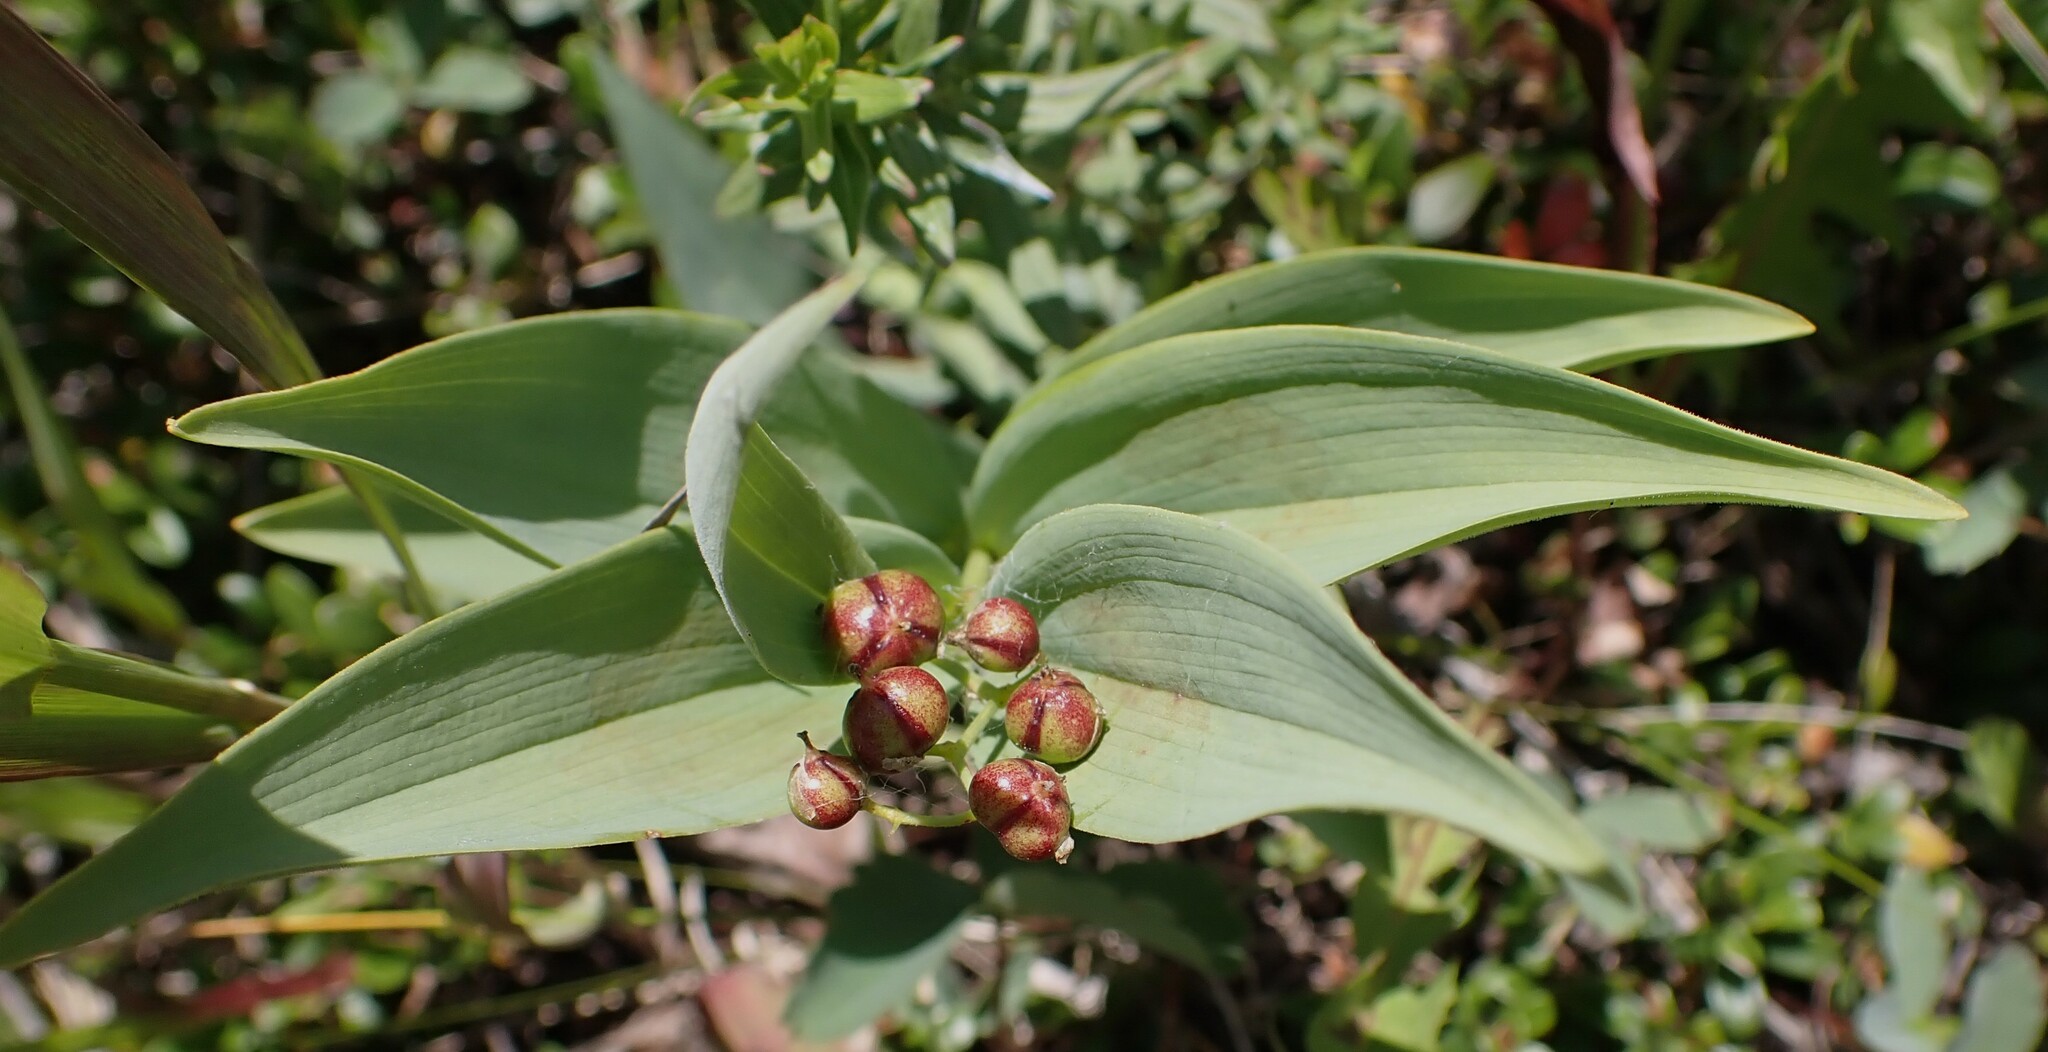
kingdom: Plantae
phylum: Tracheophyta
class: Liliopsida
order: Asparagales
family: Asparagaceae
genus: Maianthemum
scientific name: Maianthemum stellatum
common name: Little false solomon's seal
